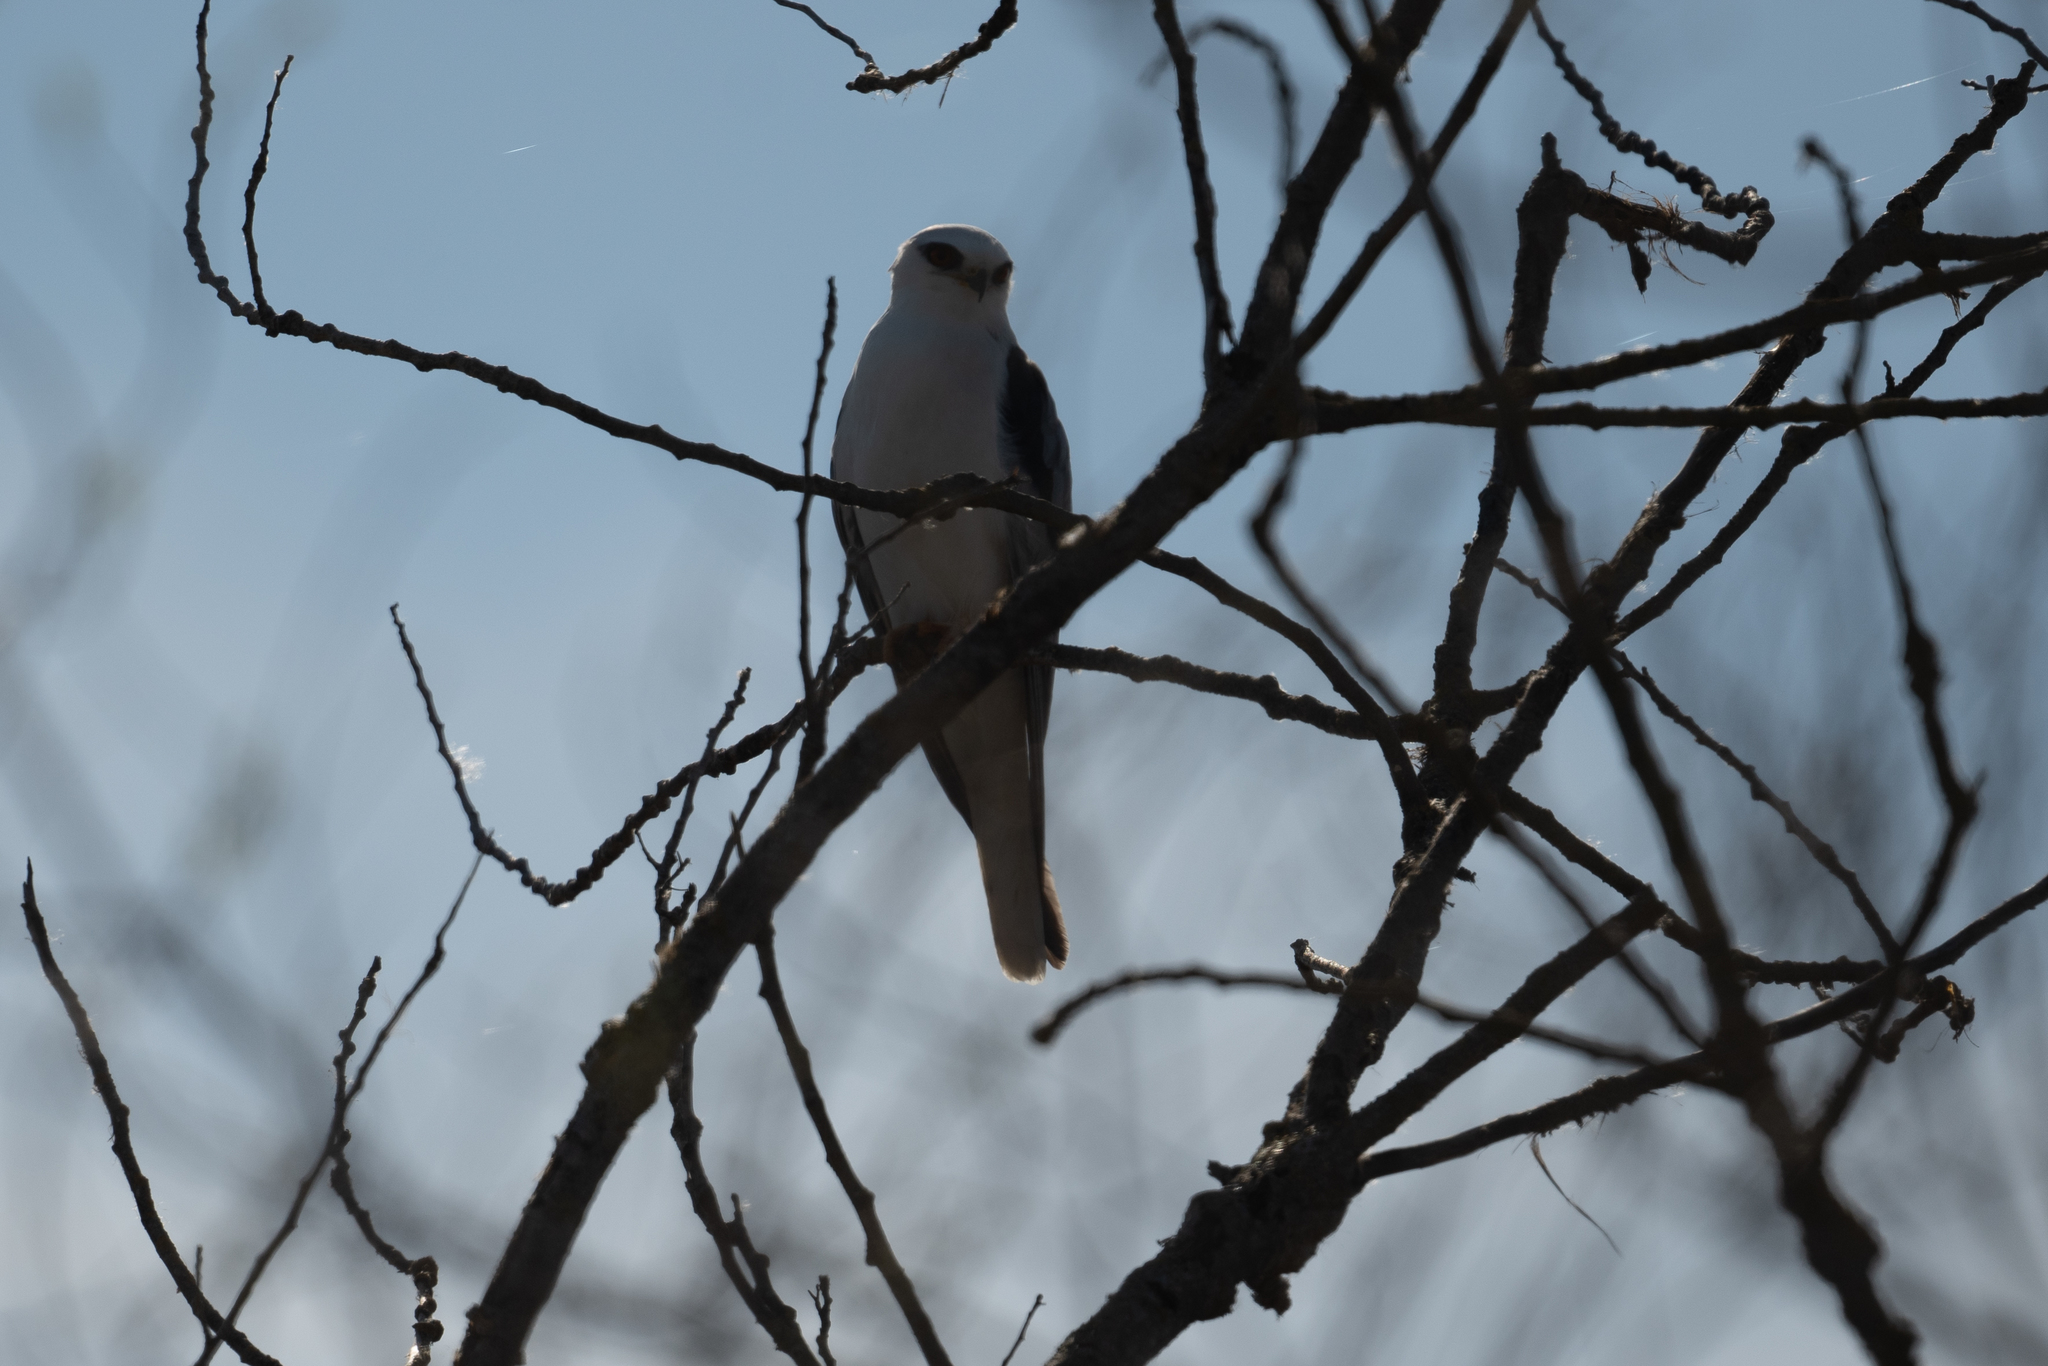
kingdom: Animalia
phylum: Chordata
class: Aves
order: Accipitriformes
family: Accipitridae
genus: Elanus
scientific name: Elanus leucurus
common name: White-tailed kite
